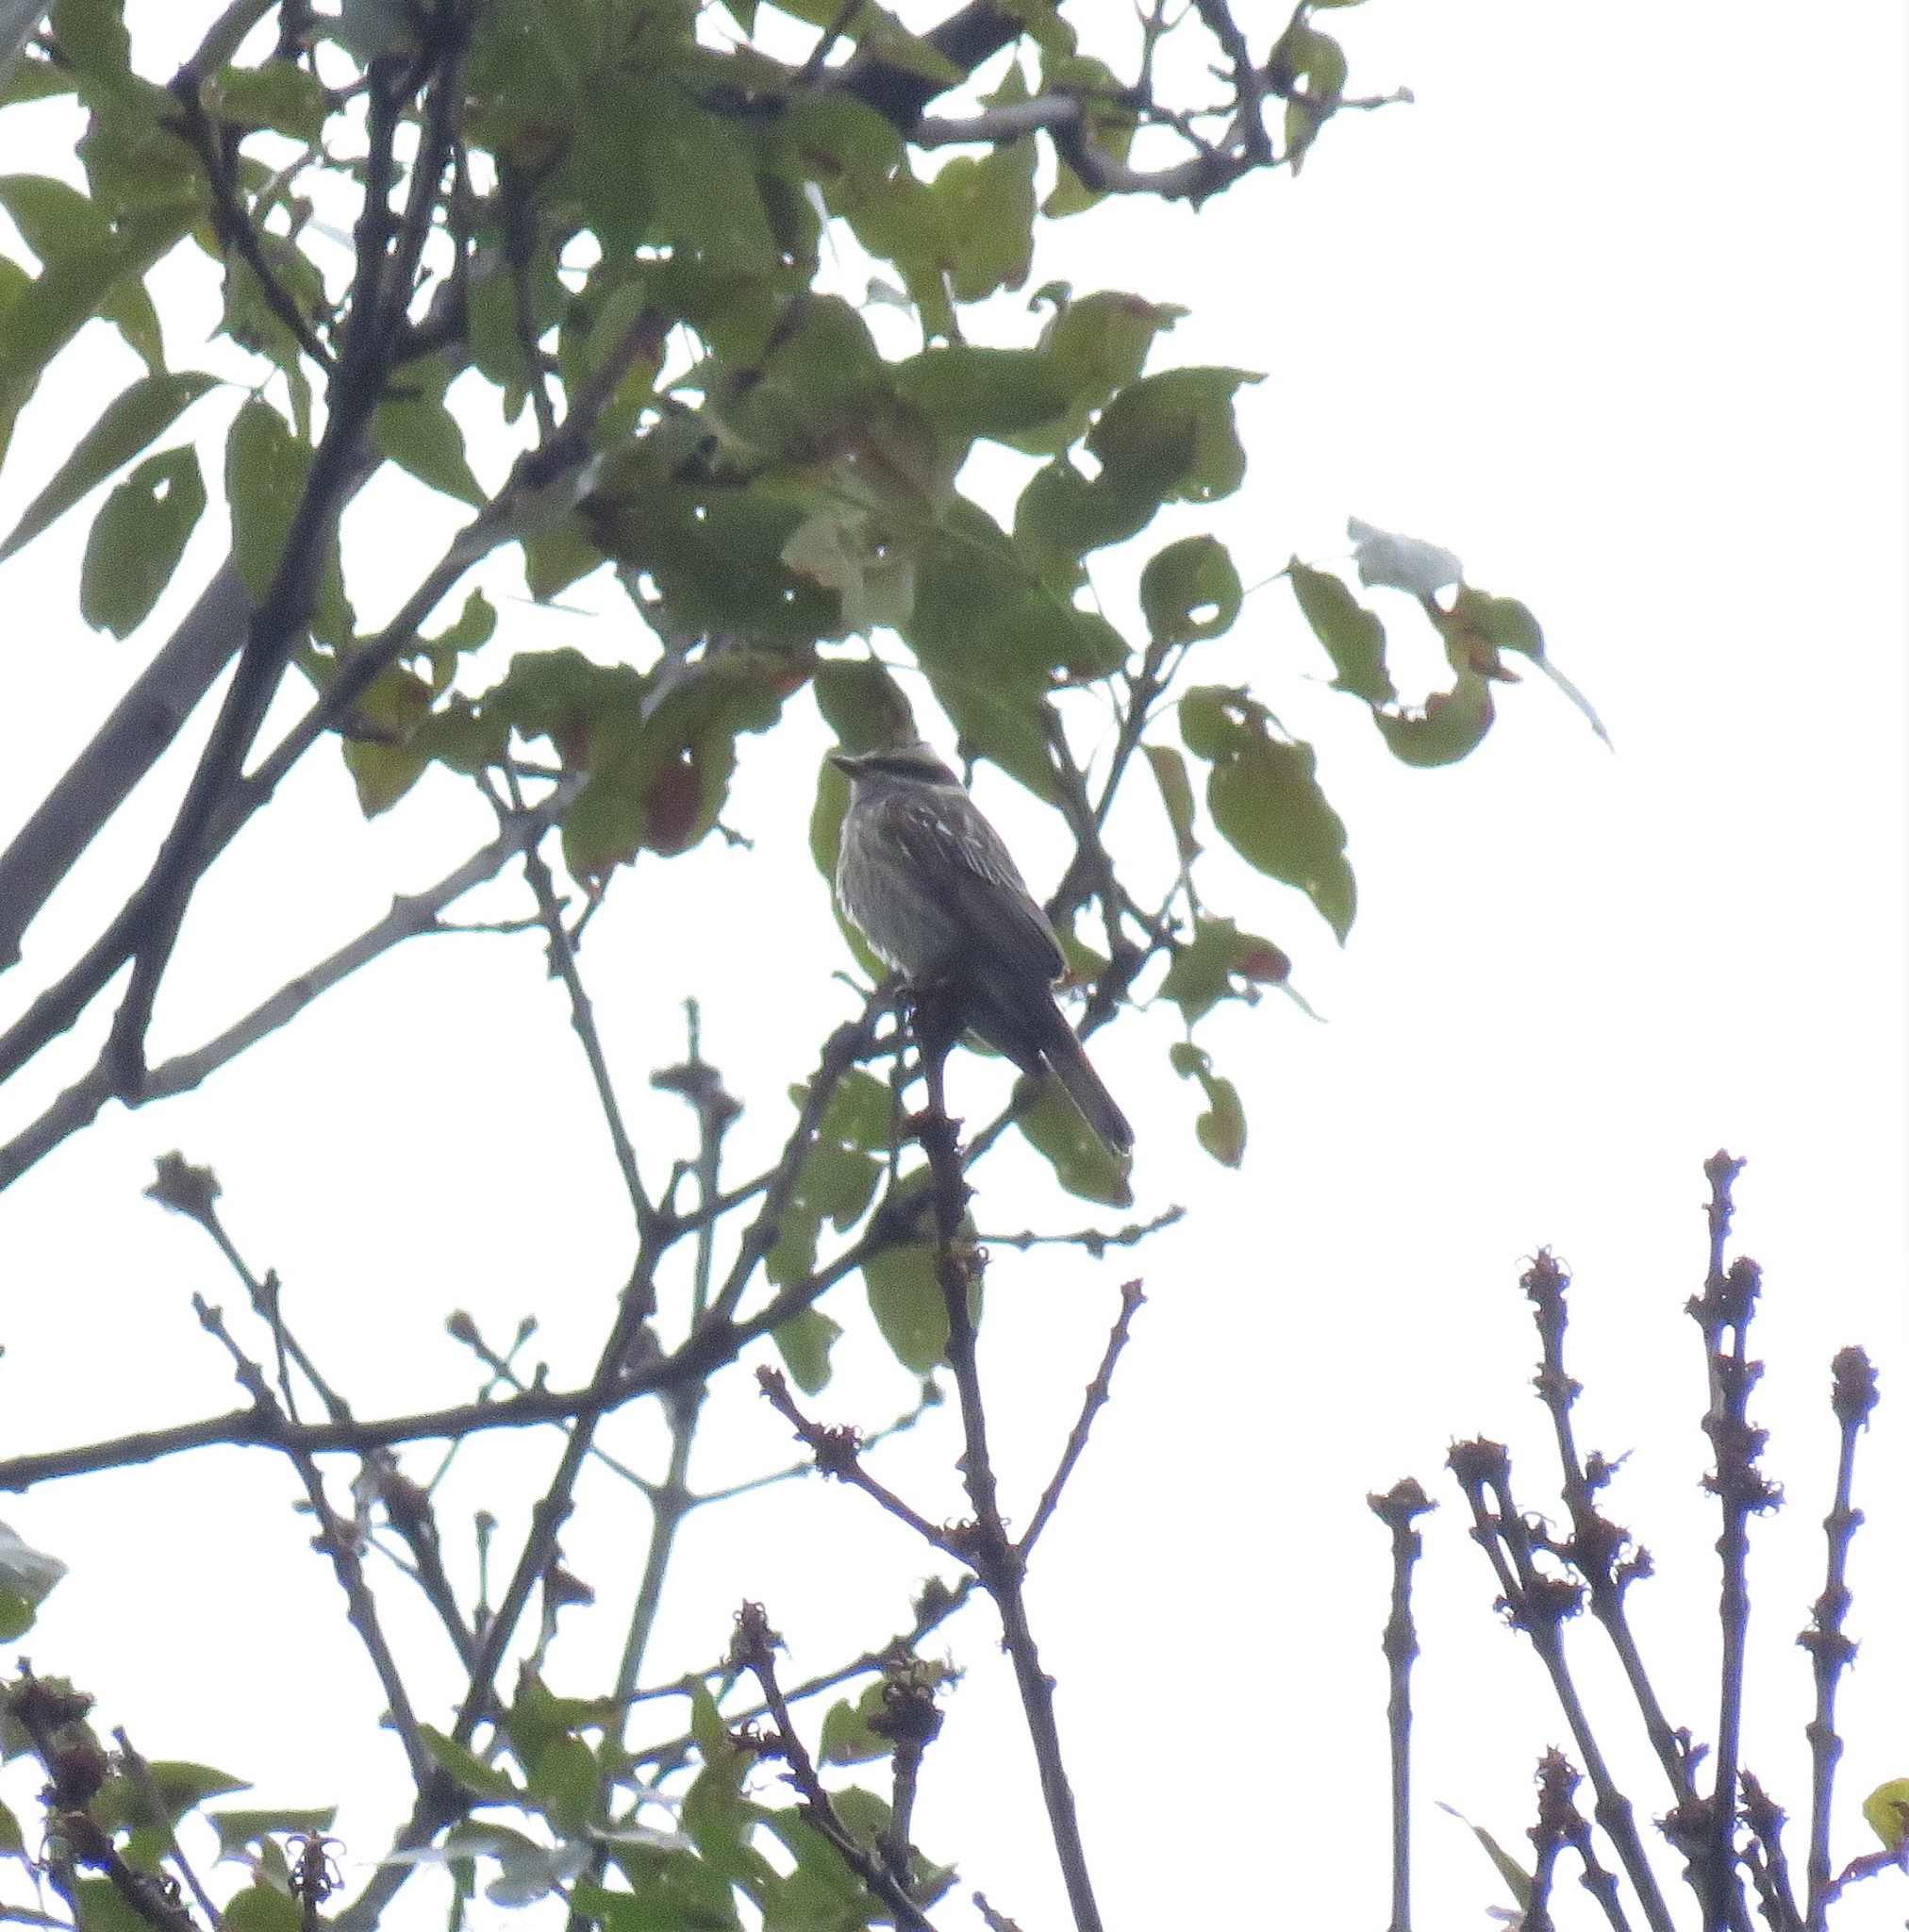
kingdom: Animalia
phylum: Chordata
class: Aves
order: Passeriformes
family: Tyrannidae
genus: Empidonomus
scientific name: Empidonomus varius
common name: Variegated flycatcher
